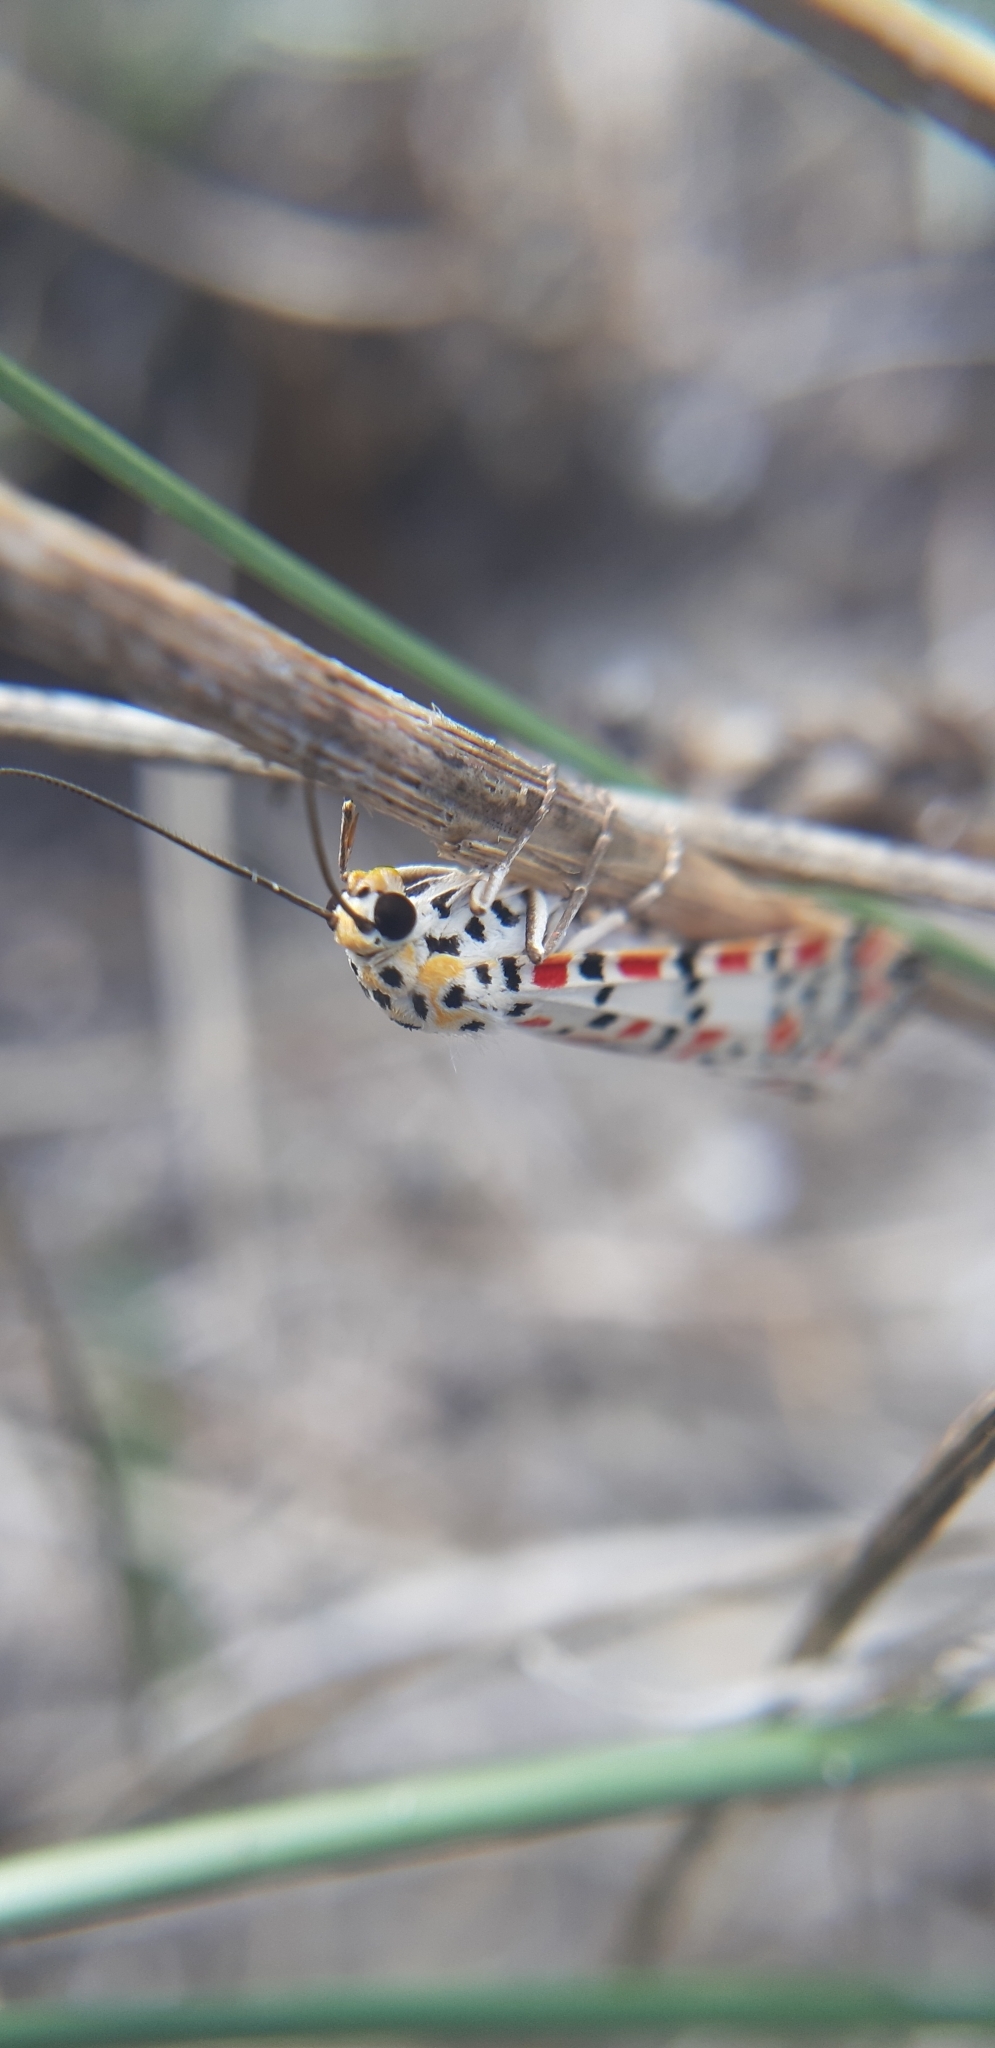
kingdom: Animalia
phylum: Arthropoda
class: Insecta
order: Lepidoptera
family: Erebidae
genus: Utetheisa
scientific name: Utetheisa pulchella
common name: Crimson speckled
